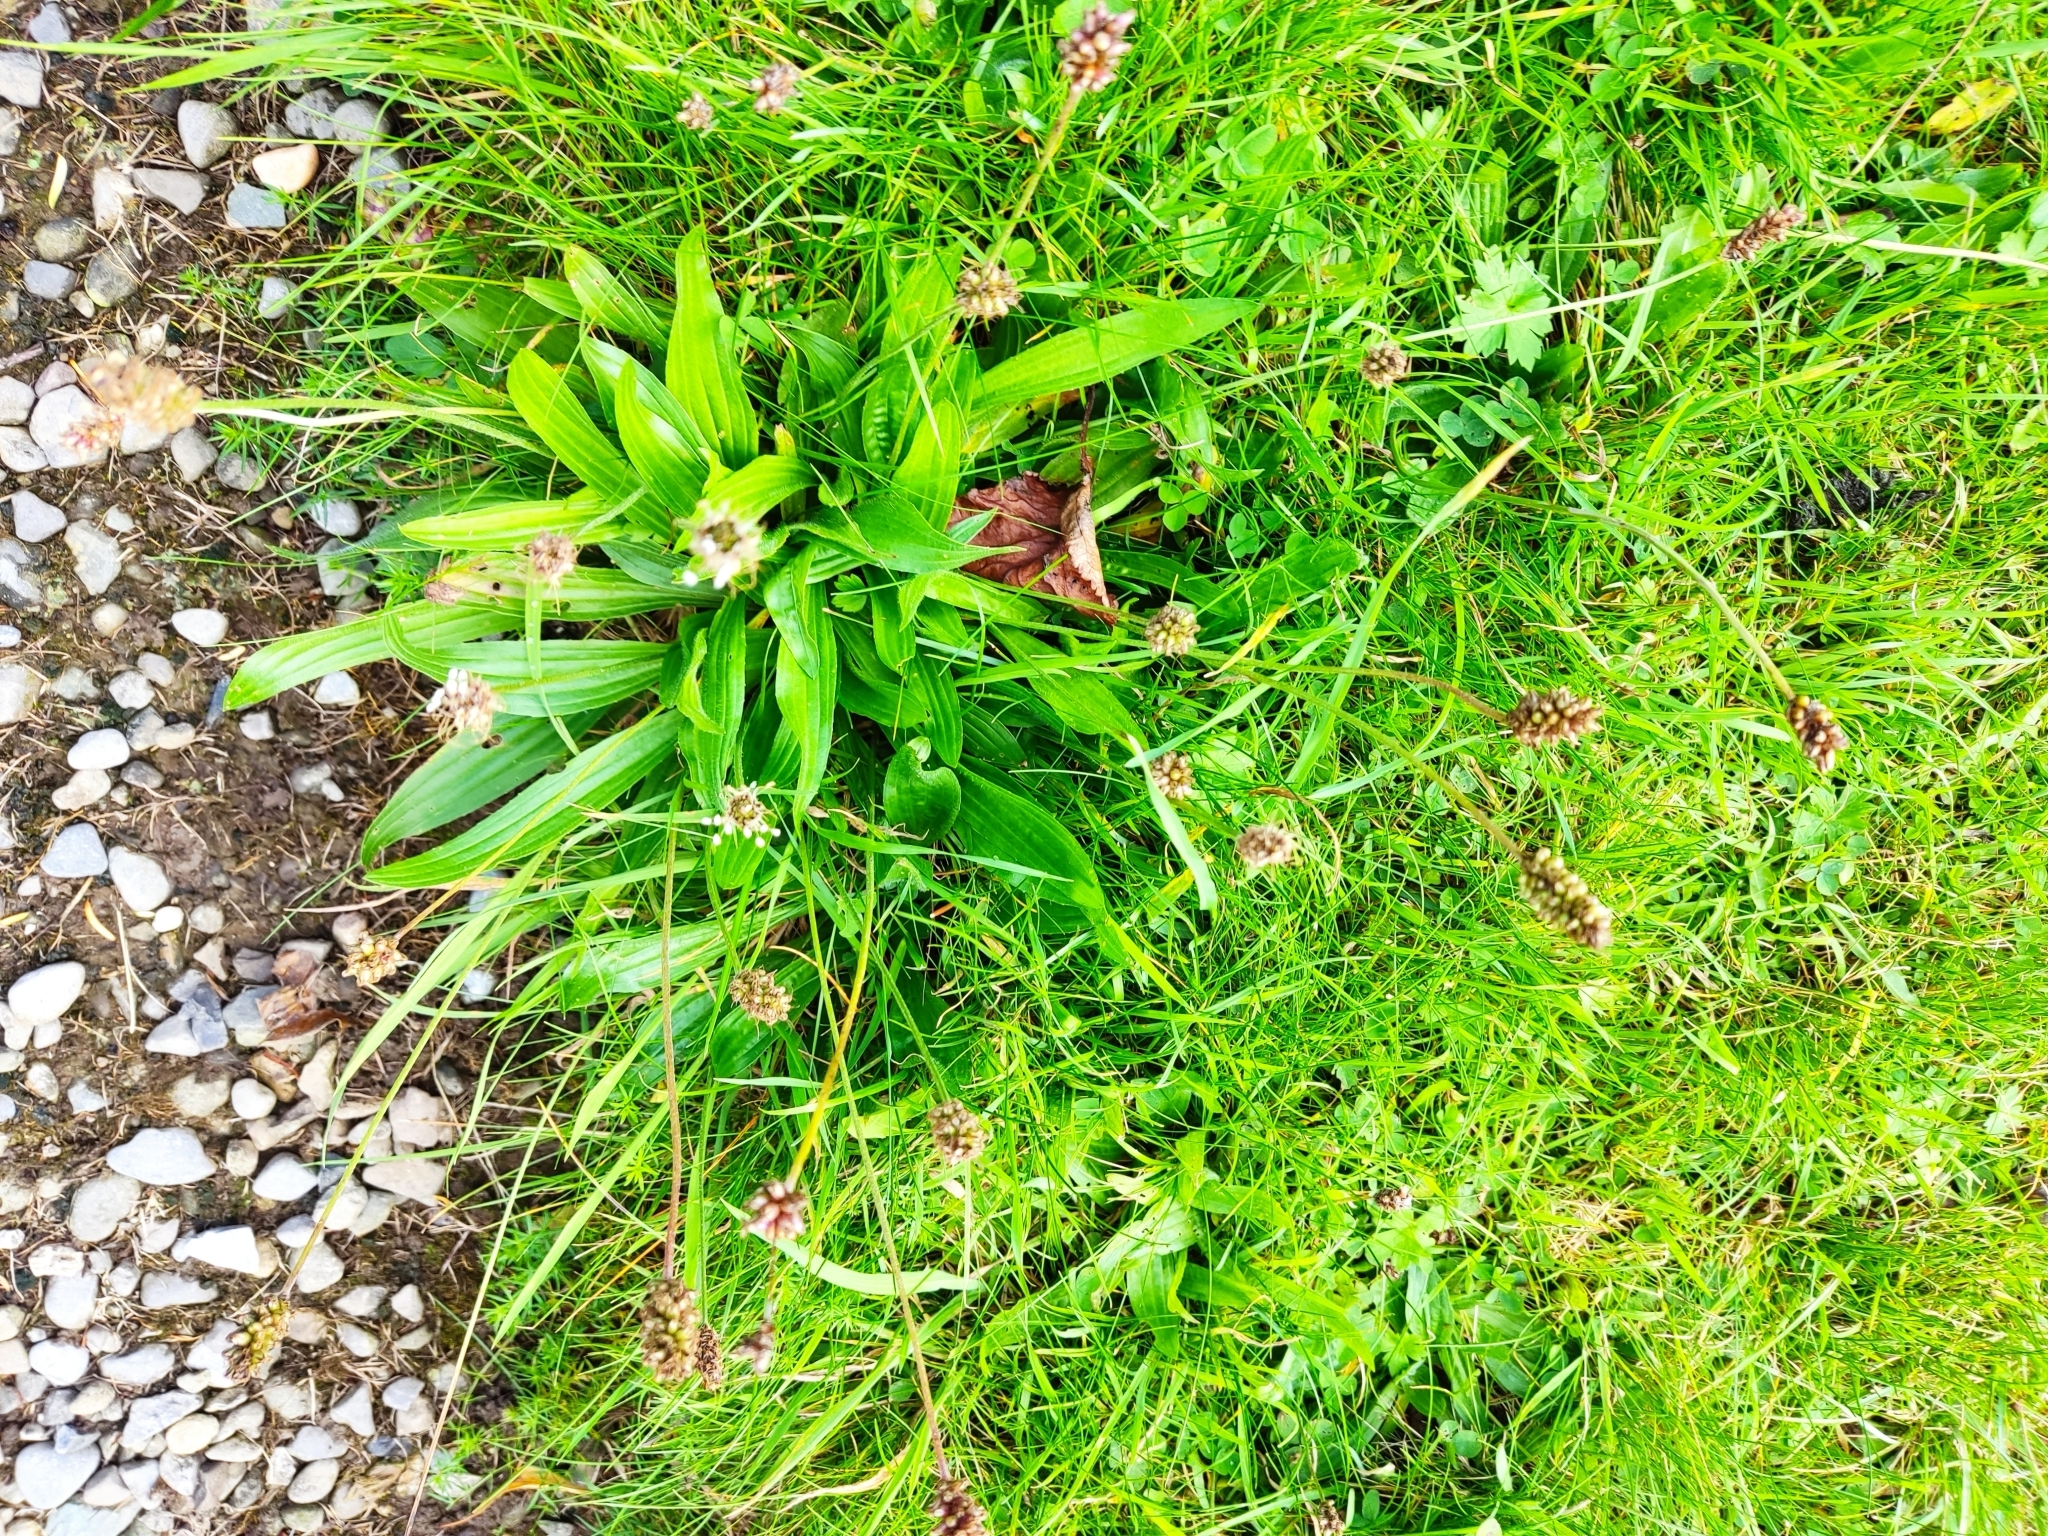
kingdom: Plantae
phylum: Tracheophyta
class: Magnoliopsida
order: Lamiales
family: Plantaginaceae
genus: Plantago
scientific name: Plantago lanceolata
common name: Ribwort plantain
